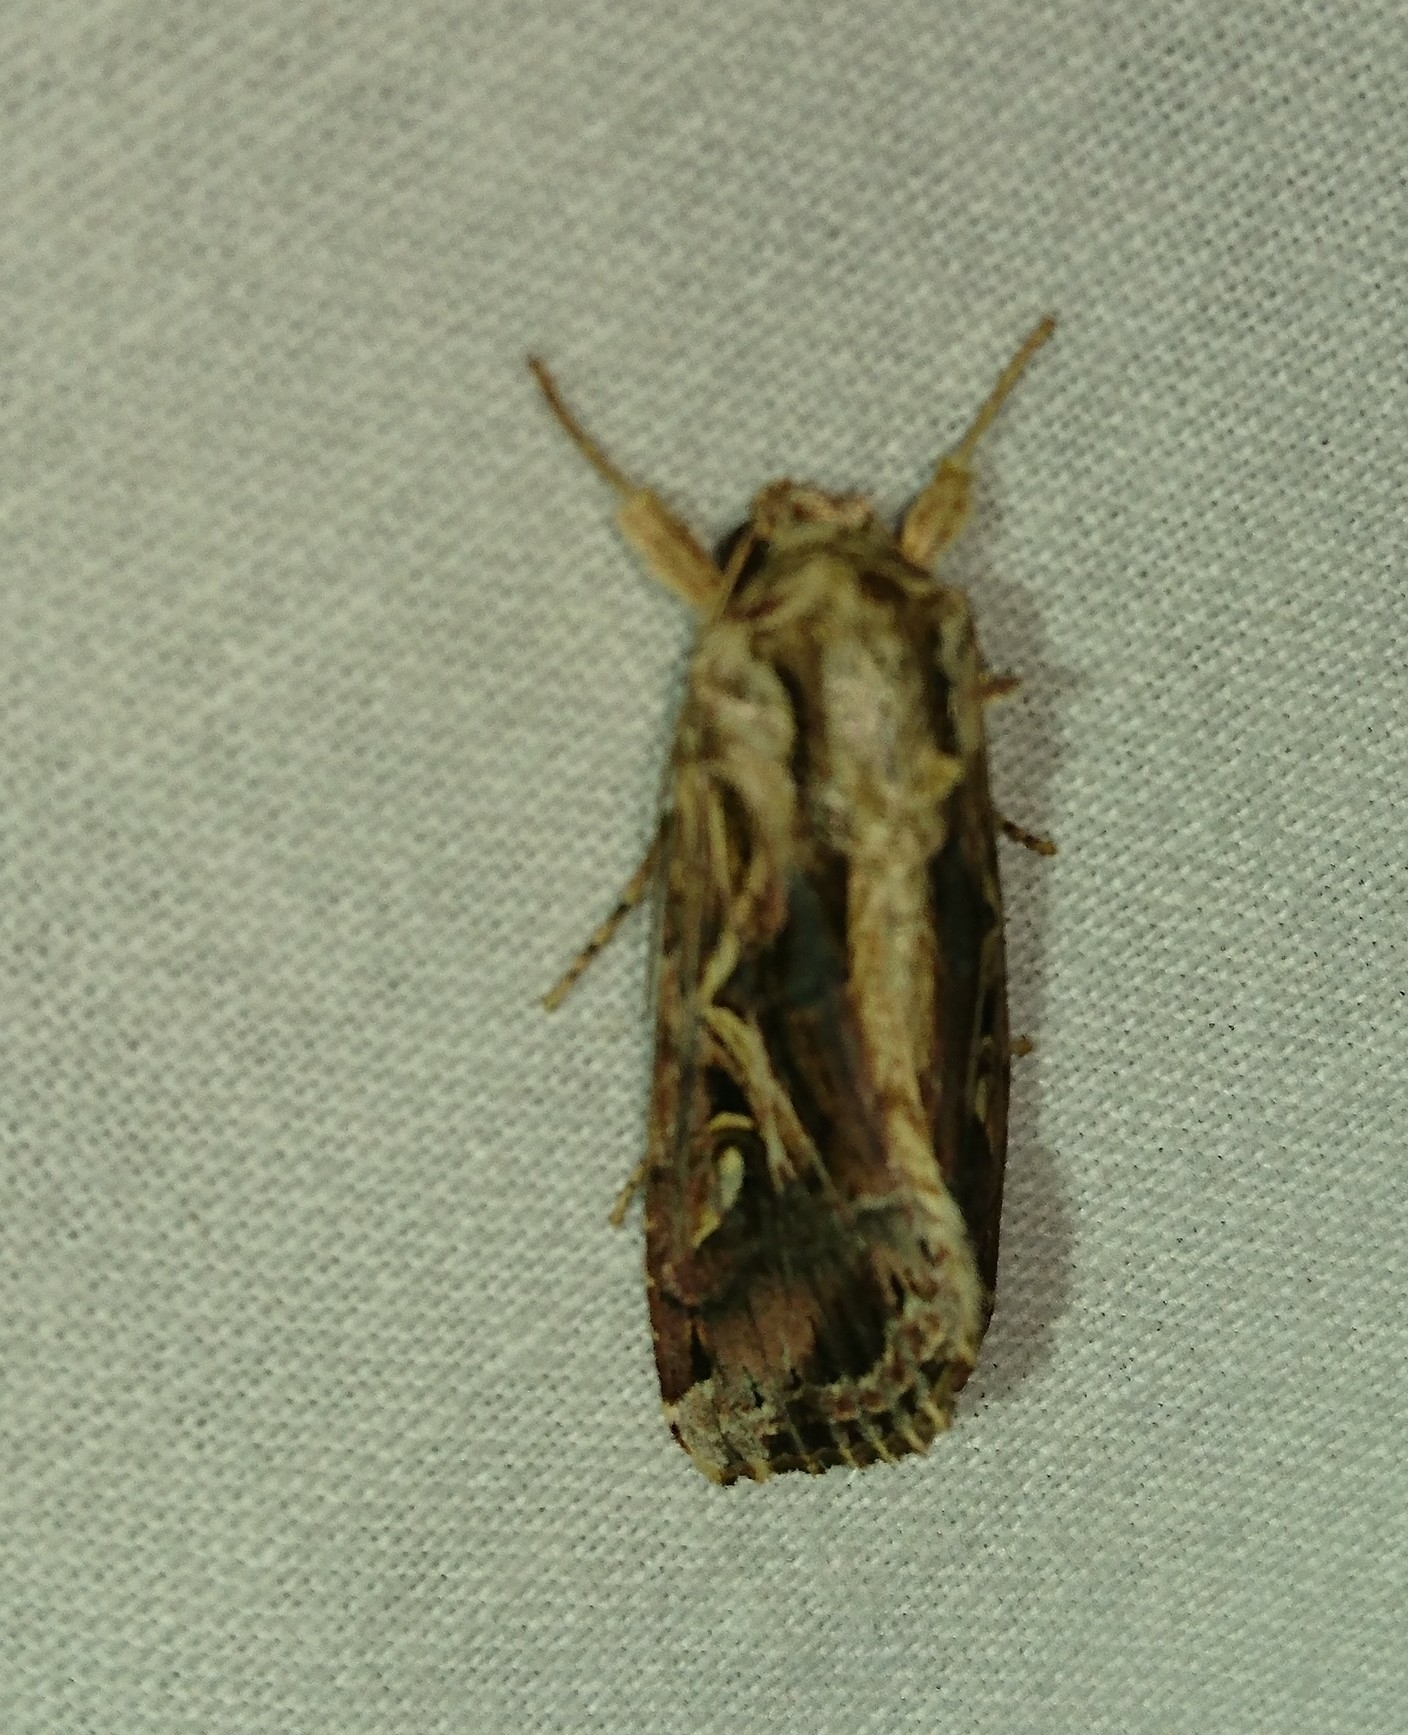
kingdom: Animalia
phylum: Arthropoda
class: Insecta
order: Lepidoptera
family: Noctuidae
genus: Spodoptera
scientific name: Spodoptera dolichos
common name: Sweetpotato armyworm
